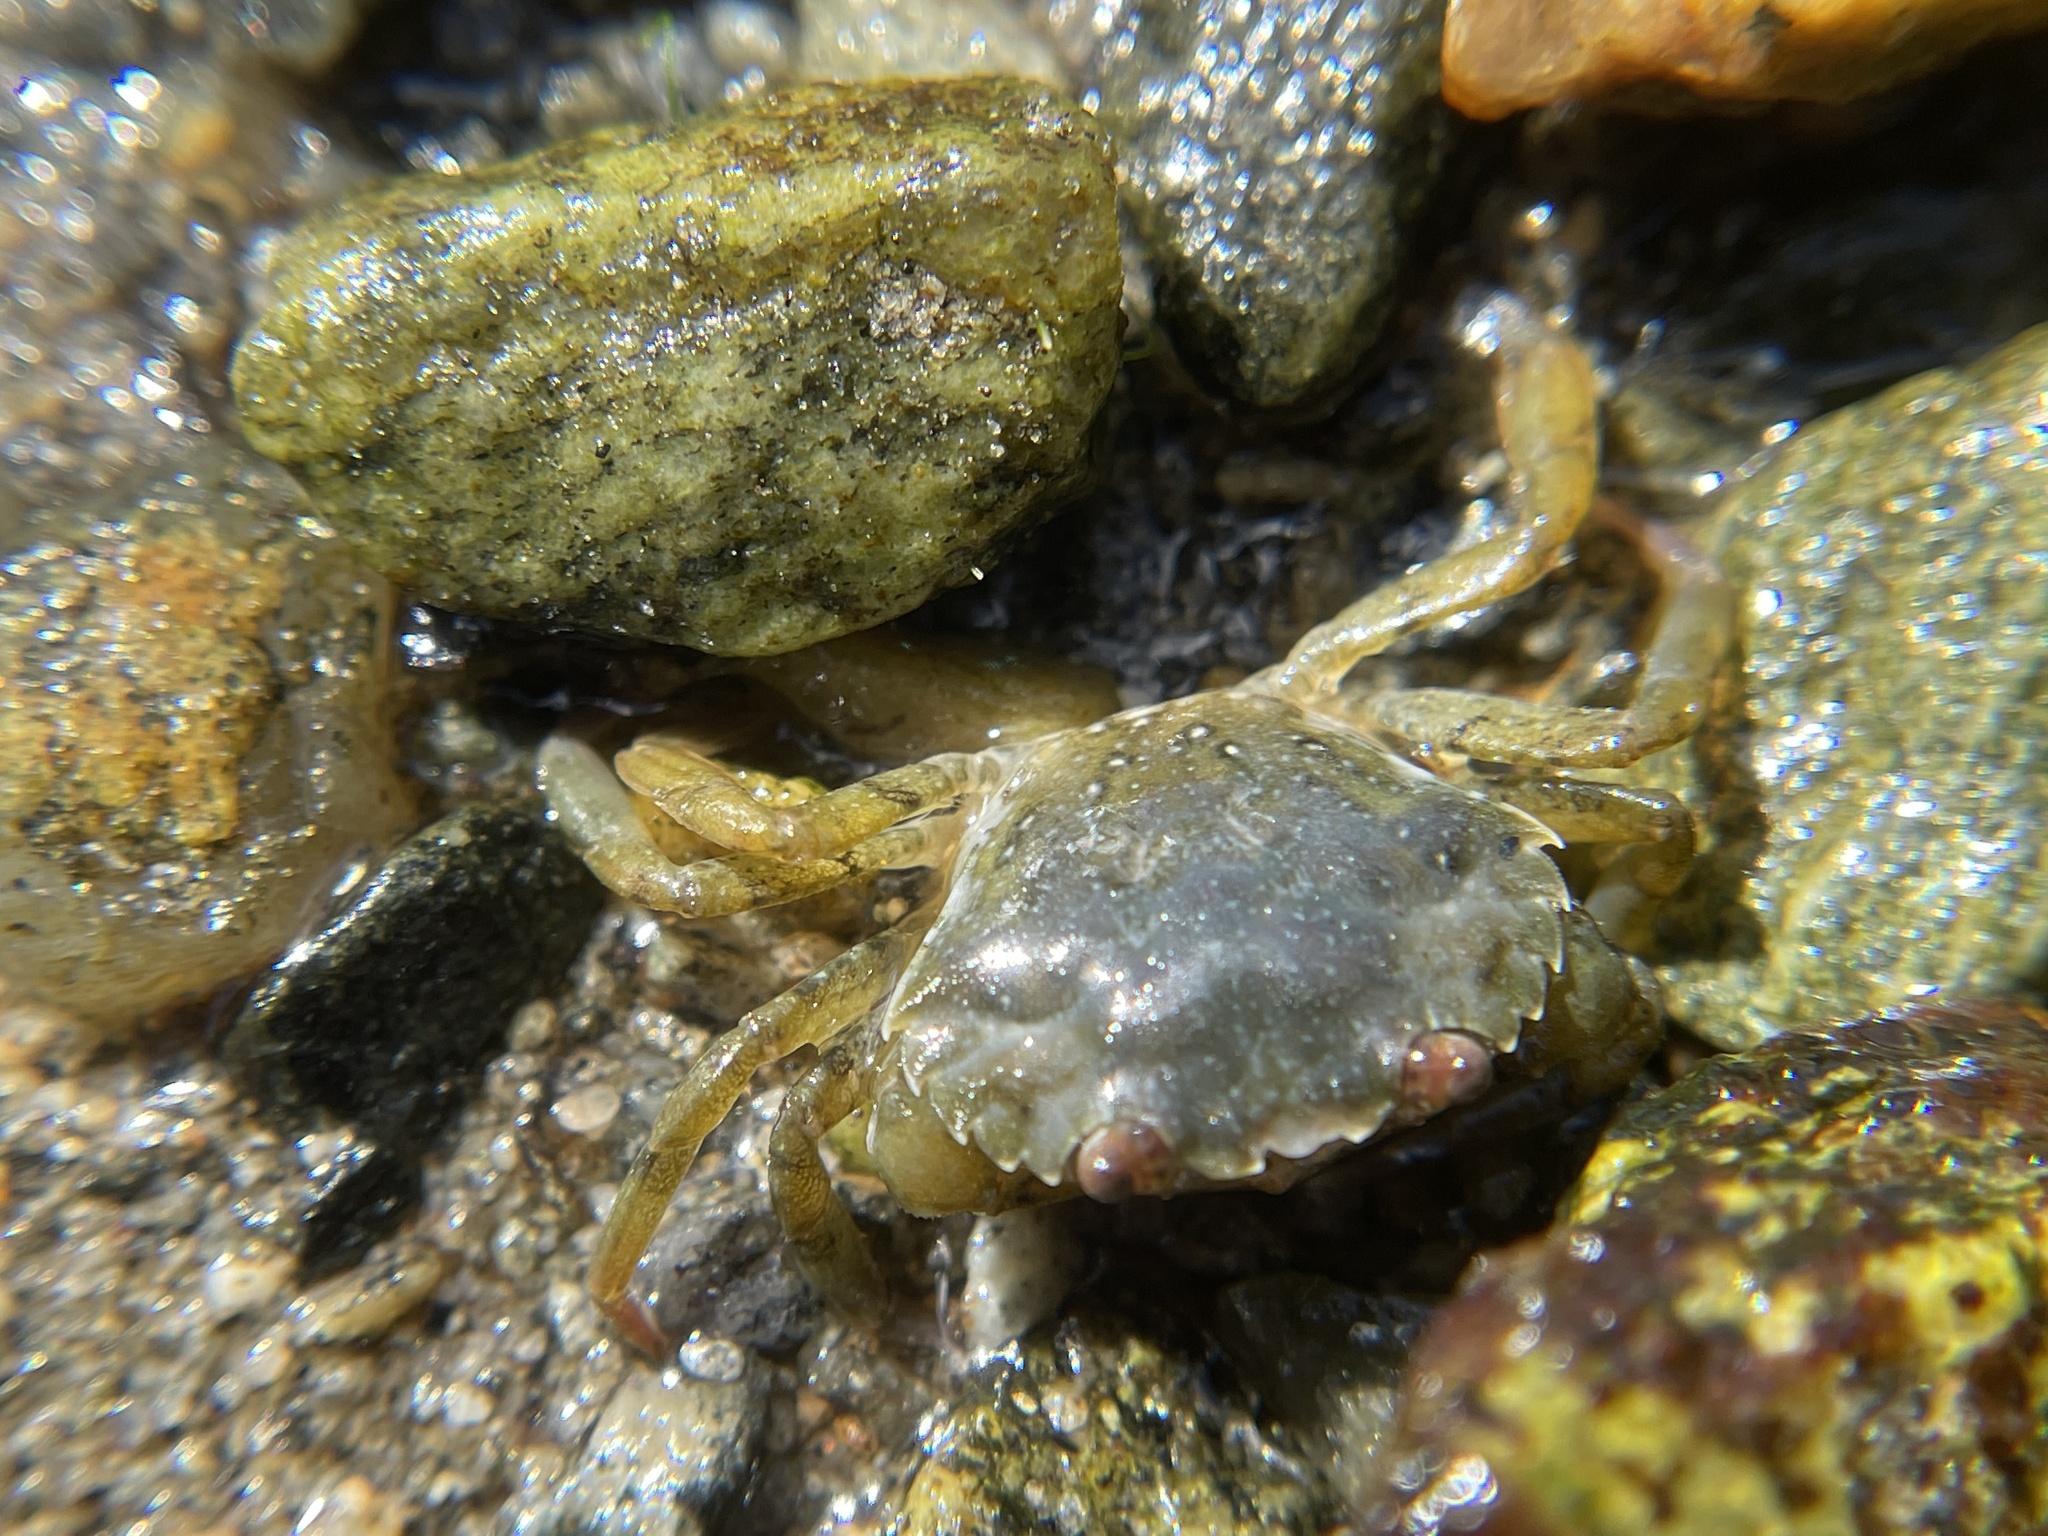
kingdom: Animalia
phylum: Arthropoda
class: Malacostraca
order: Decapoda
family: Carcinidae
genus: Carcinus
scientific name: Carcinus maenas
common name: European green crab
